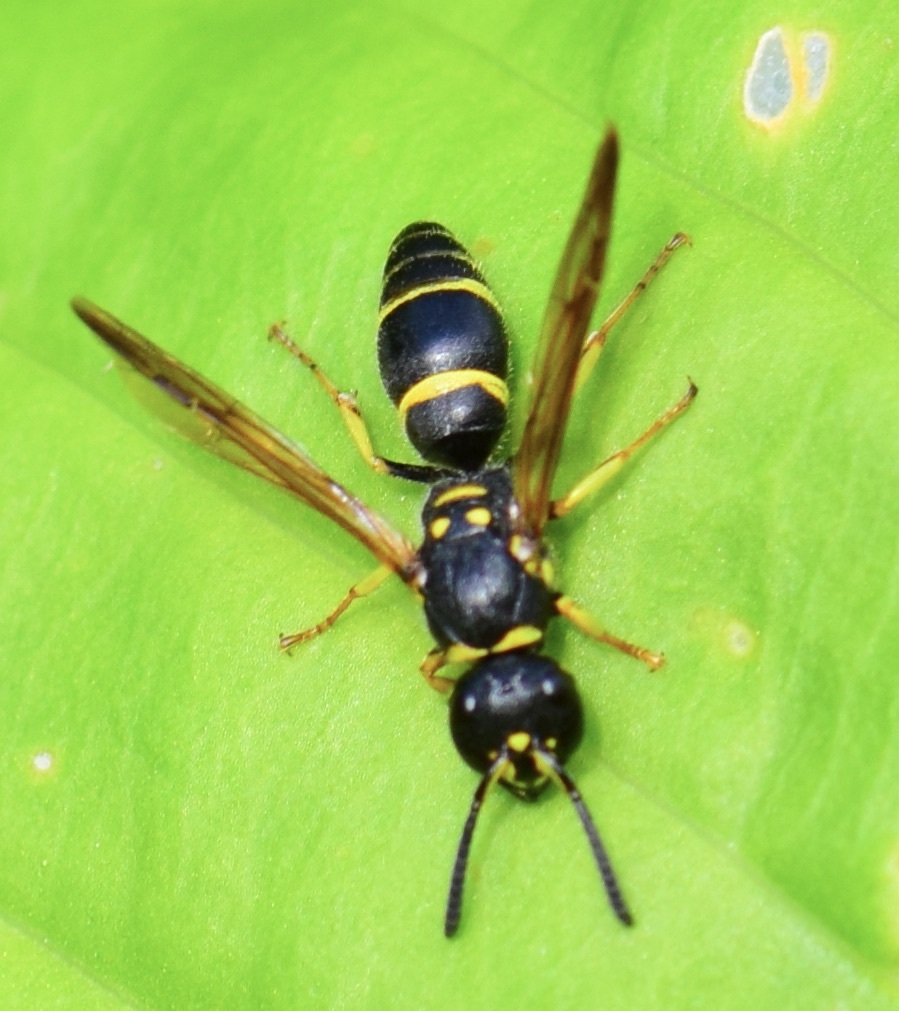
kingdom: Animalia
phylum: Arthropoda
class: Insecta
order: Hymenoptera
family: Vespidae
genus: Ancistrocerus
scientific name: Ancistrocerus adiabatus
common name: Bramble mason wasp
